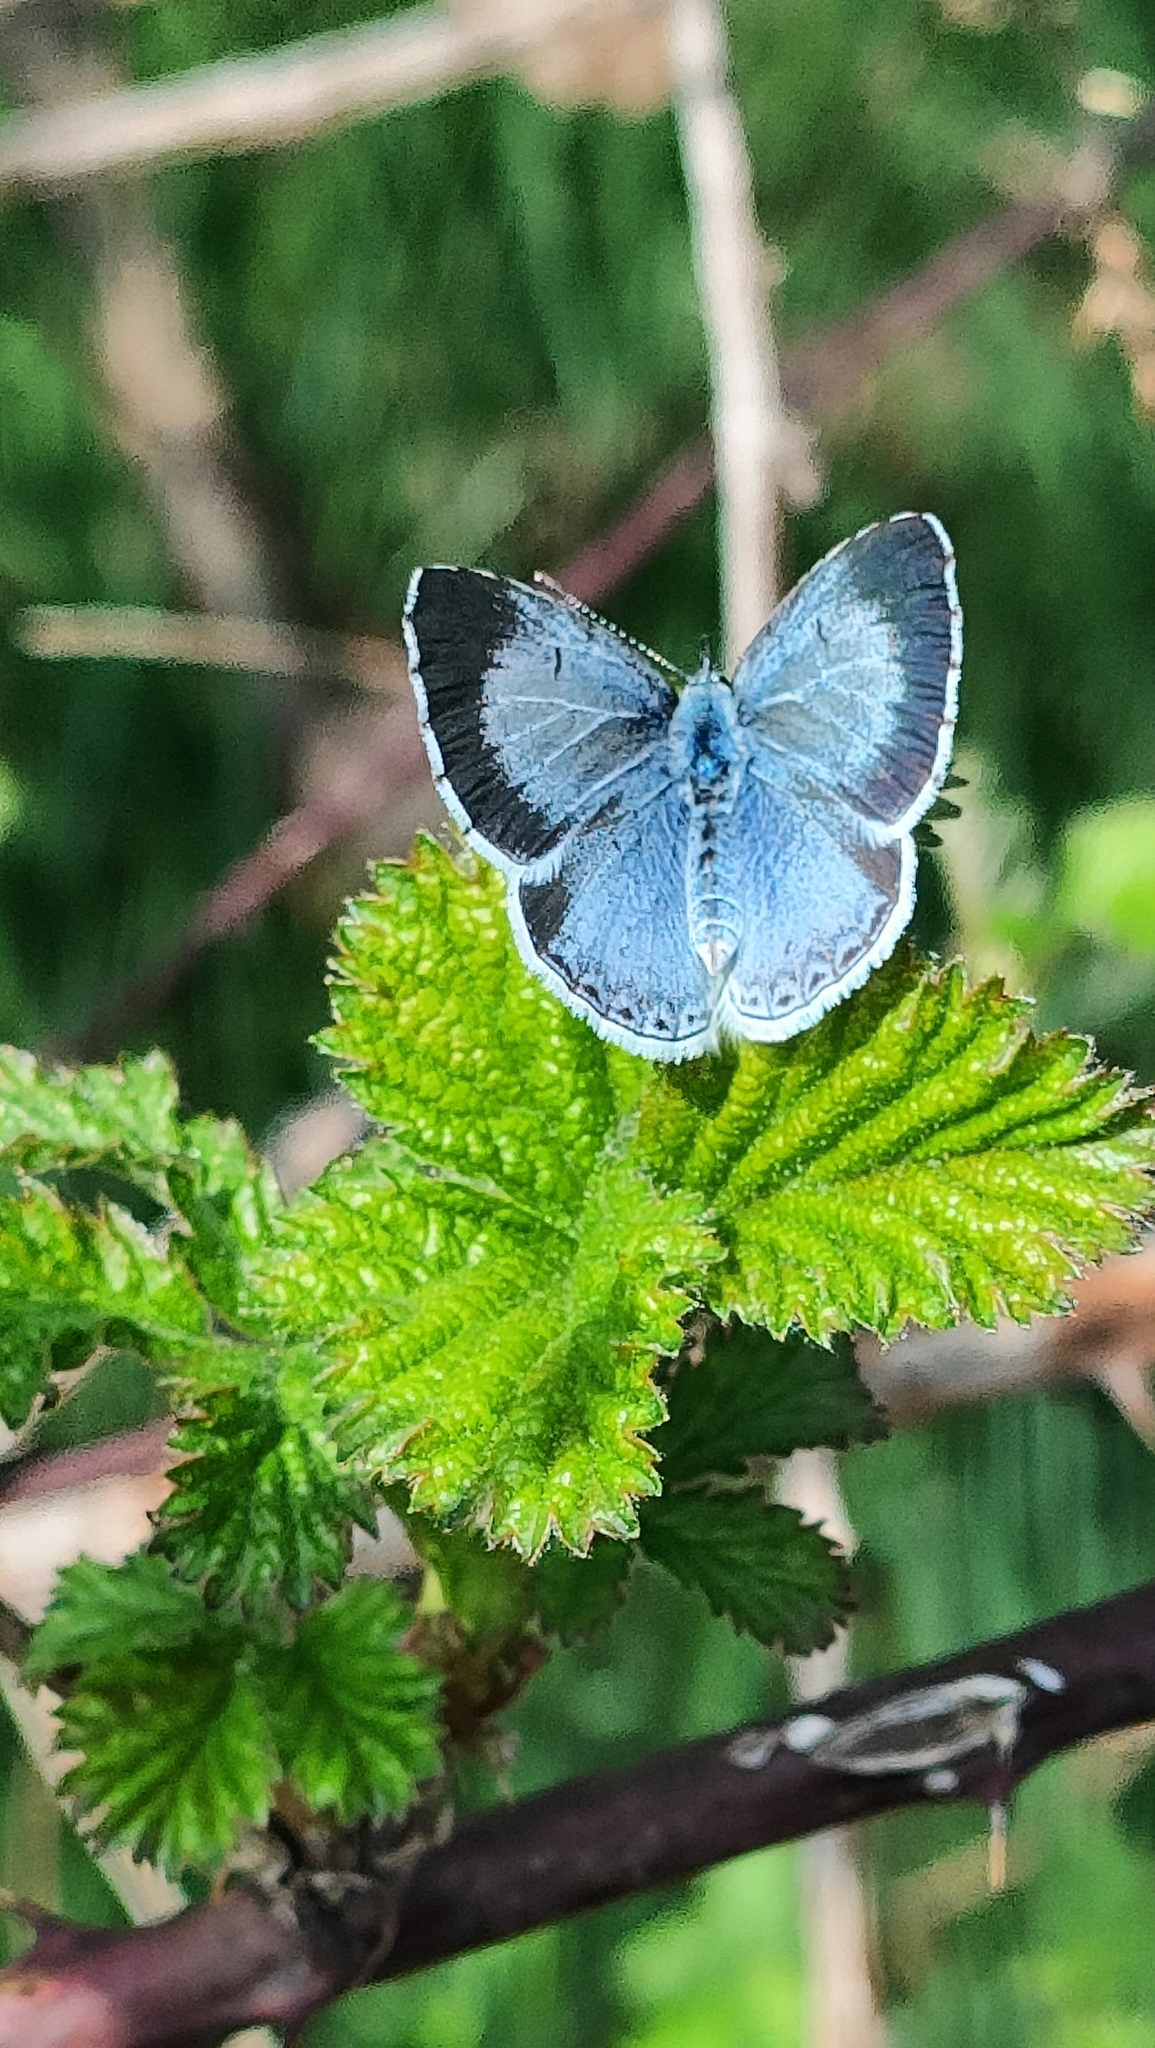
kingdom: Animalia
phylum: Arthropoda
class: Insecta
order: Lepidoptera
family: Lycaenidae
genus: Celastrina
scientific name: Celastrina argiolus
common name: Holly blue
